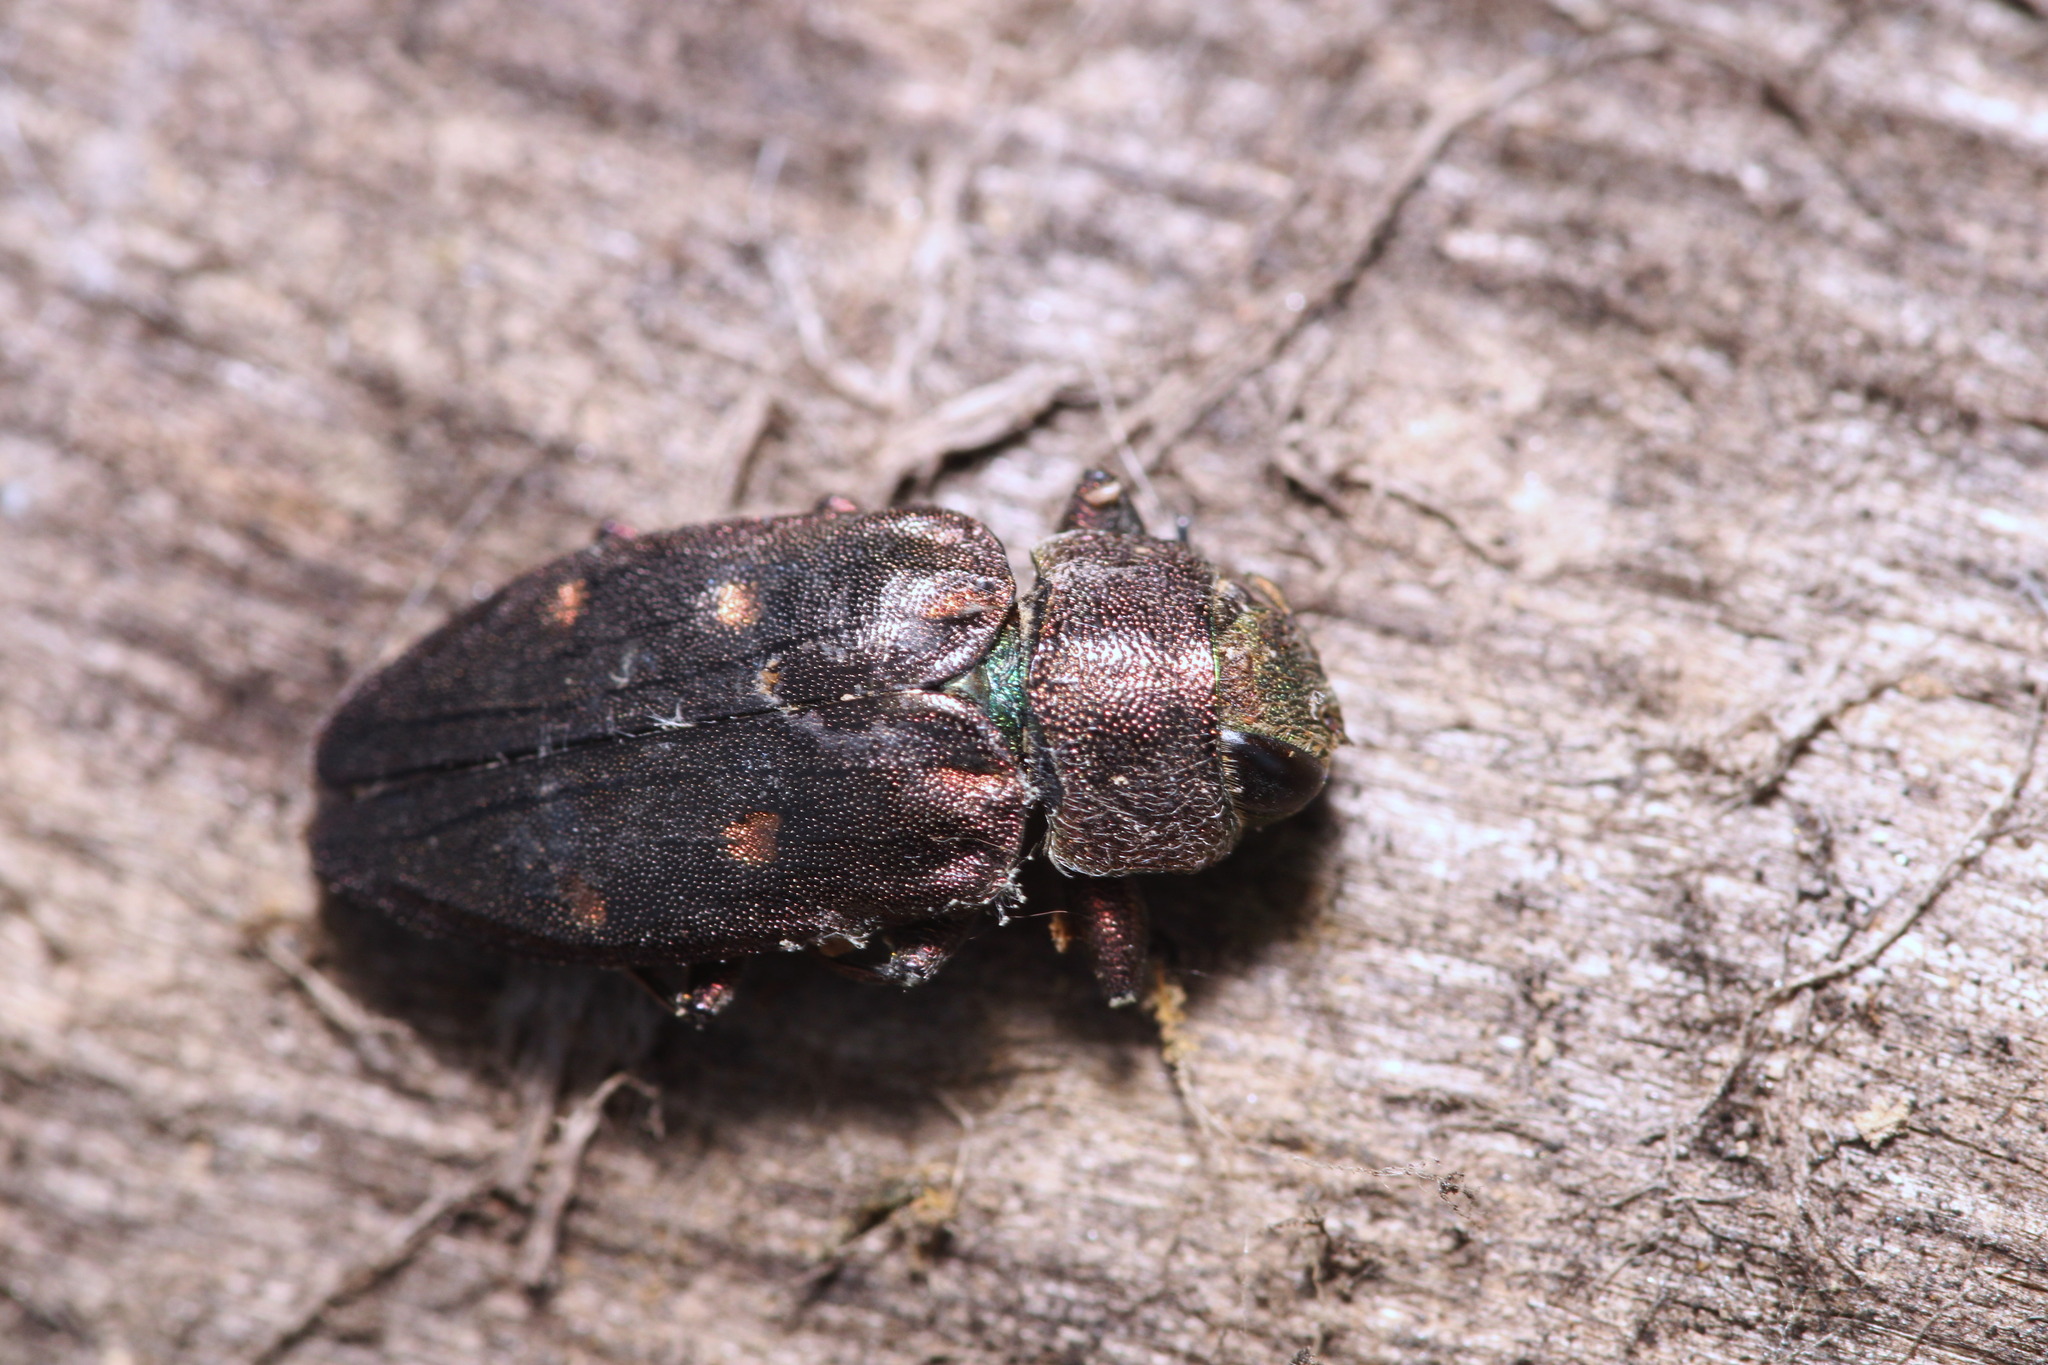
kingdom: Animalia
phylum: Arthropoda
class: Insecta
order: Coleoptera
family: Buprestidae
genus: Chrysobothris
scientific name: Chrysobothris affinis
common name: Beetle
